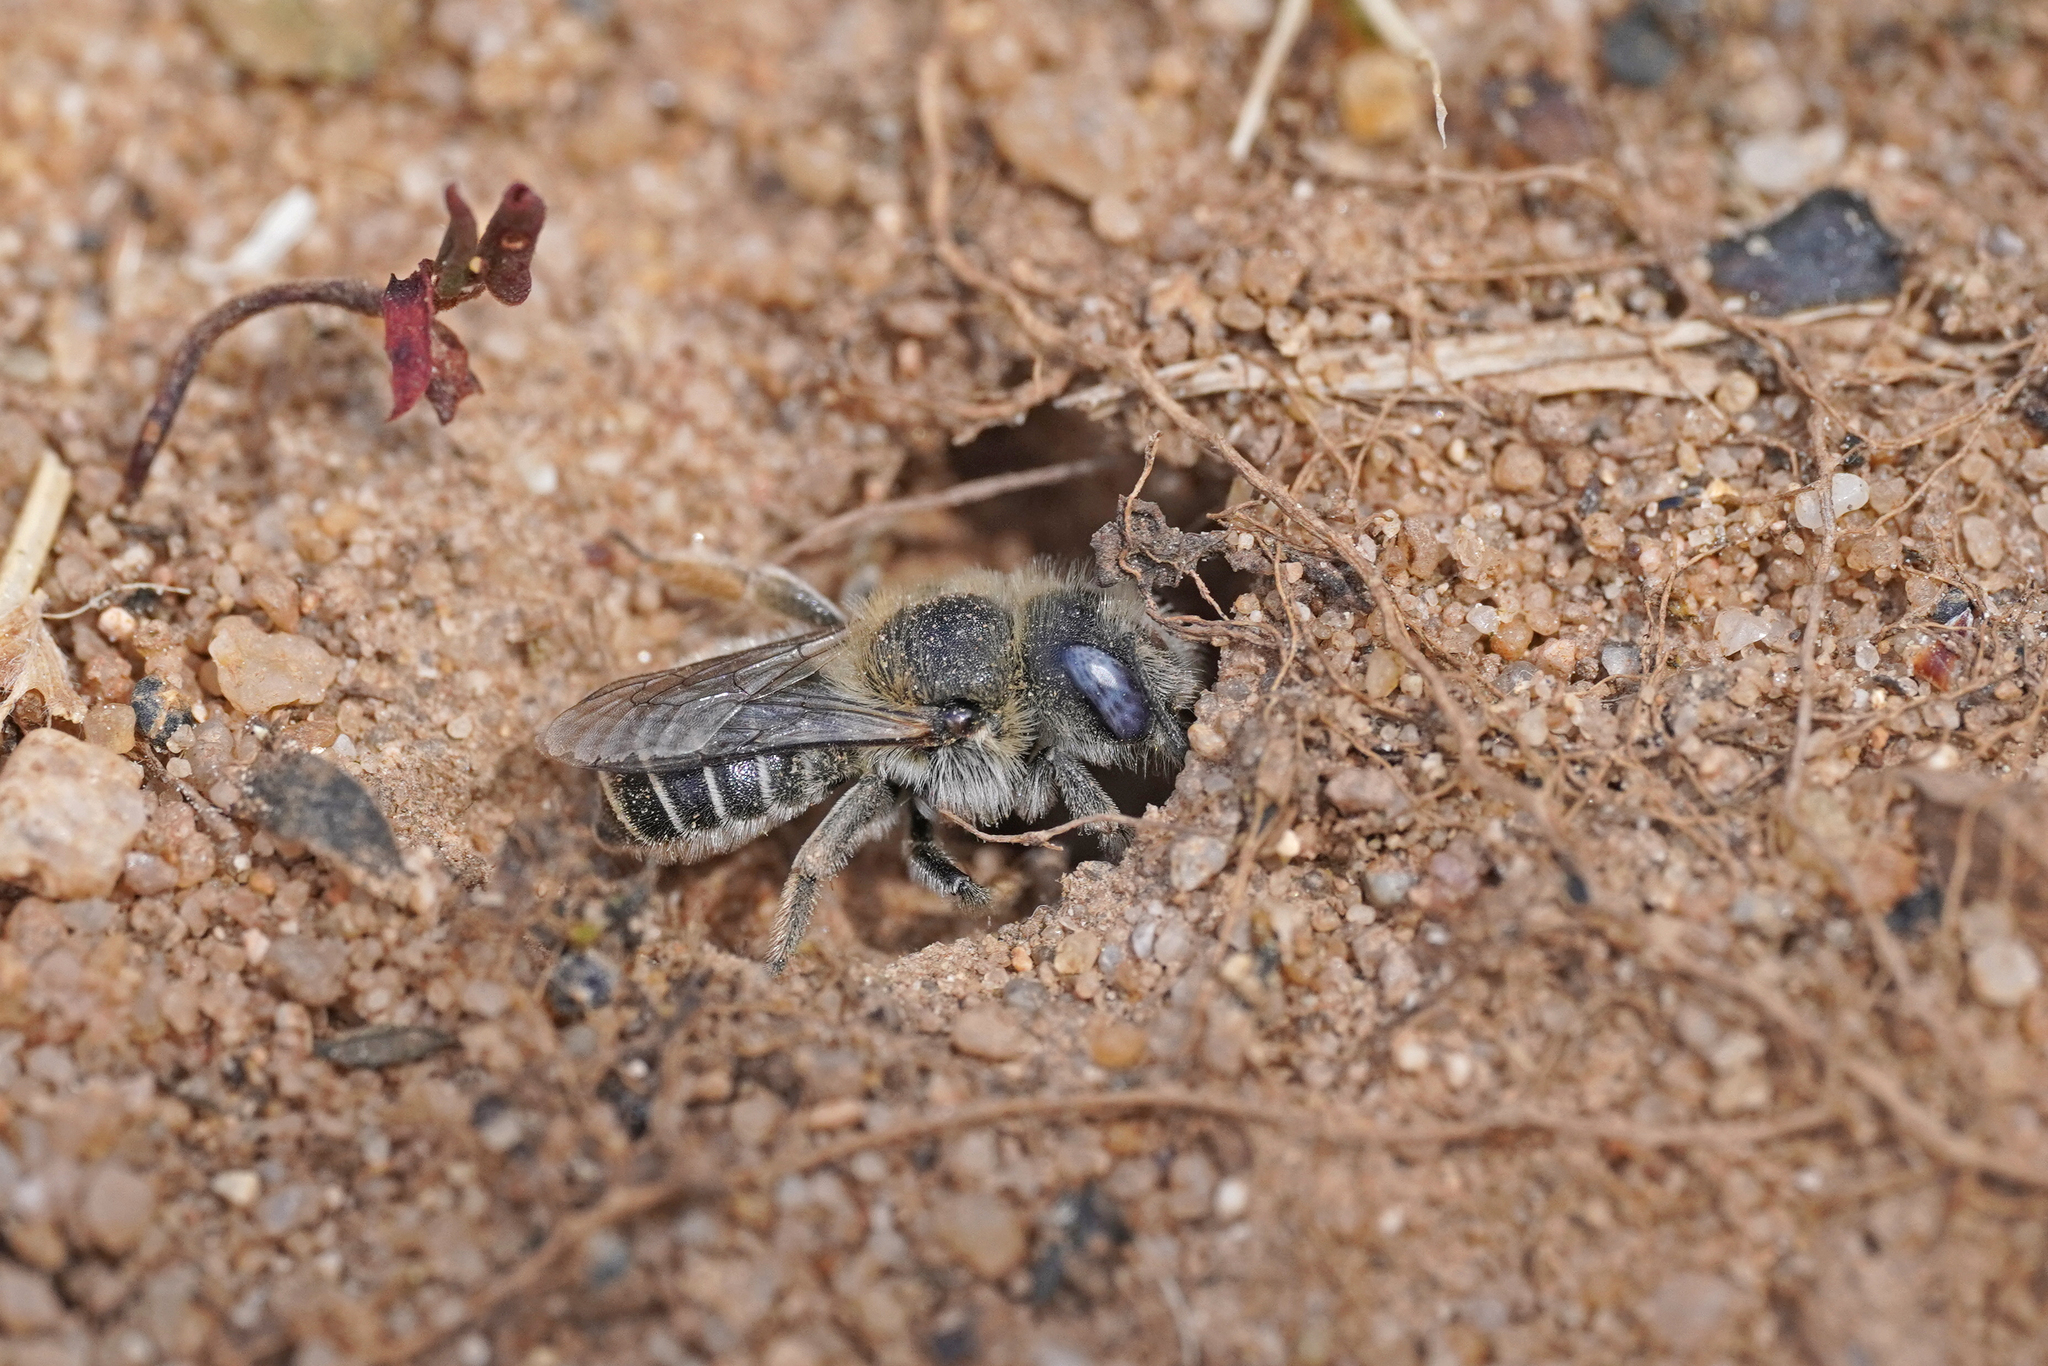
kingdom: Animalia
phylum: Arthropoda
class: Insecta
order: Hymenoptera
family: Megachilidae
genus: Hoplitis
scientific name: Hoplitis papaveris
